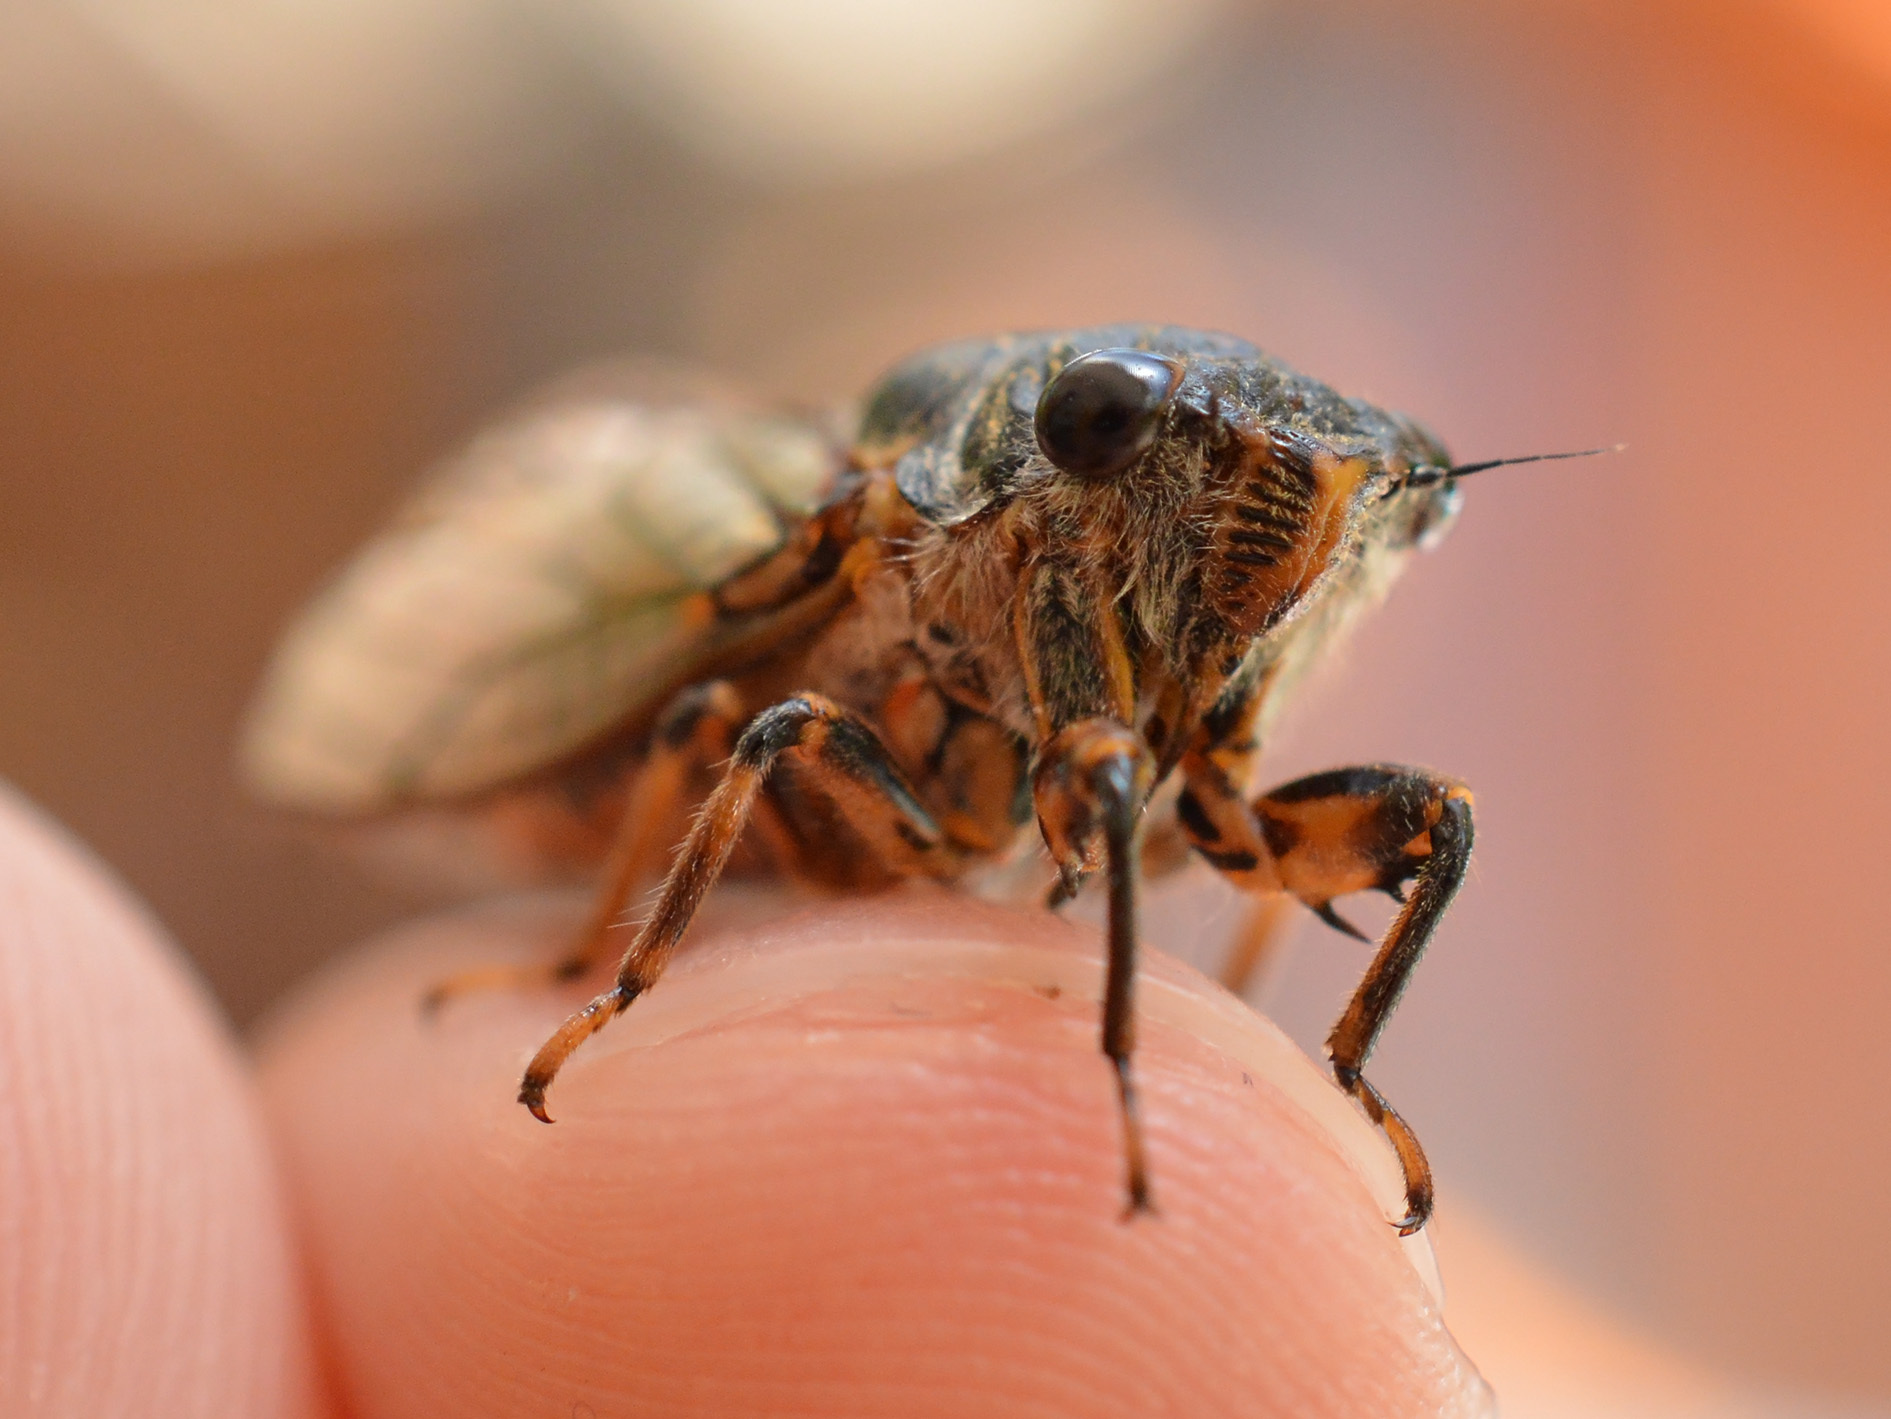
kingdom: Animalia
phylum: Arthropoda
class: Insecta
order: Hemiptera
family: Cicadidae
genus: Dimissalna
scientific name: Dimissalna dimissa
